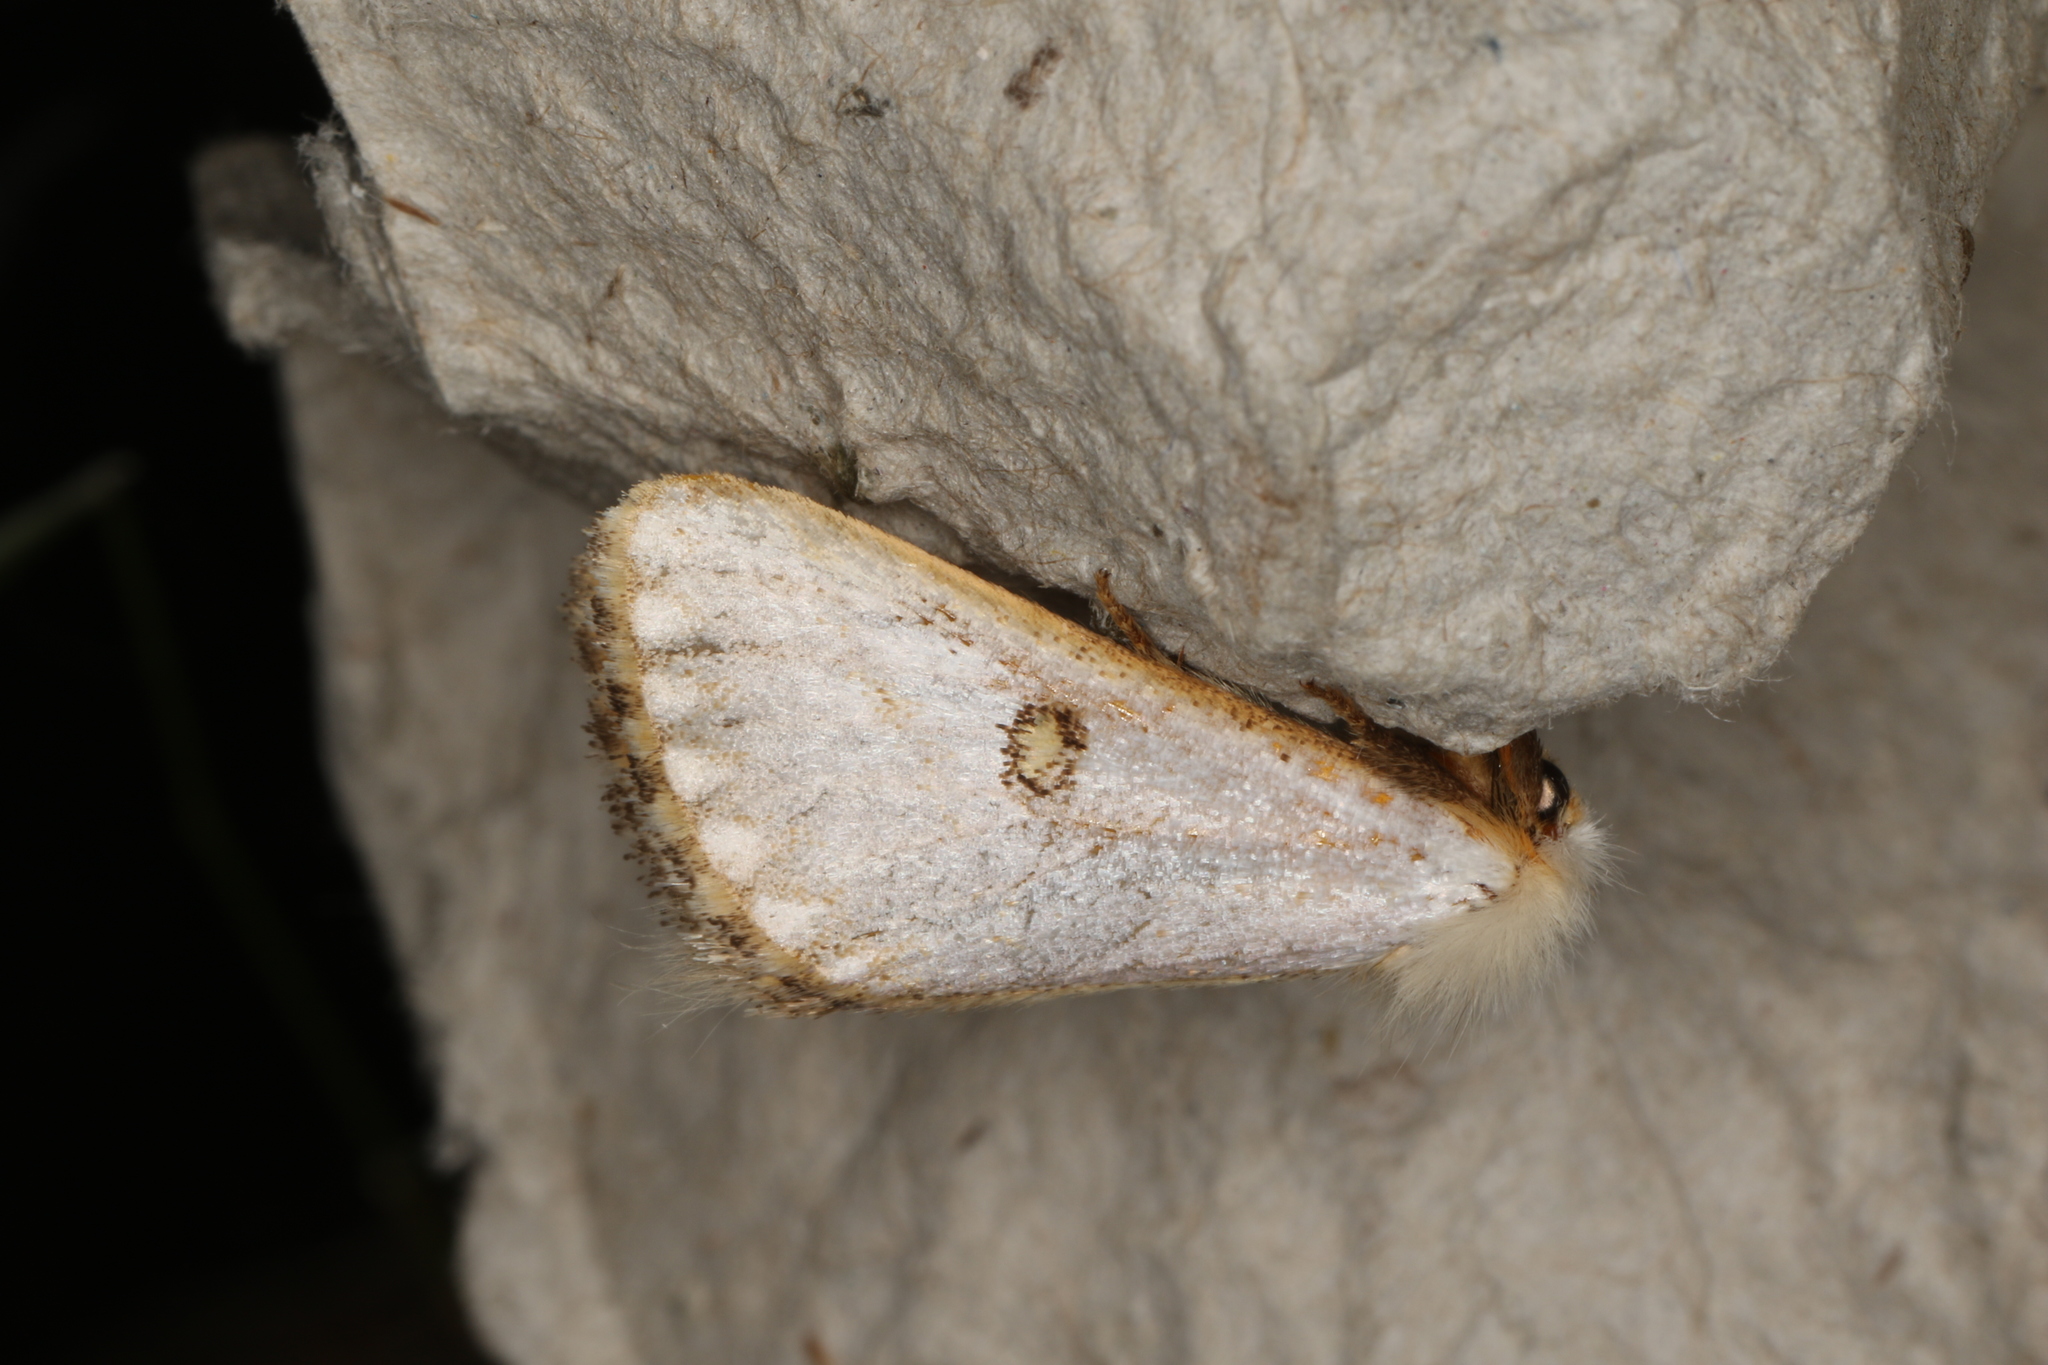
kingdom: Animalia
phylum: Arthropoda
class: Insecta
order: Lepidoptera
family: Notodontidae
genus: Epicoma
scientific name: Epicoma melanosticta
